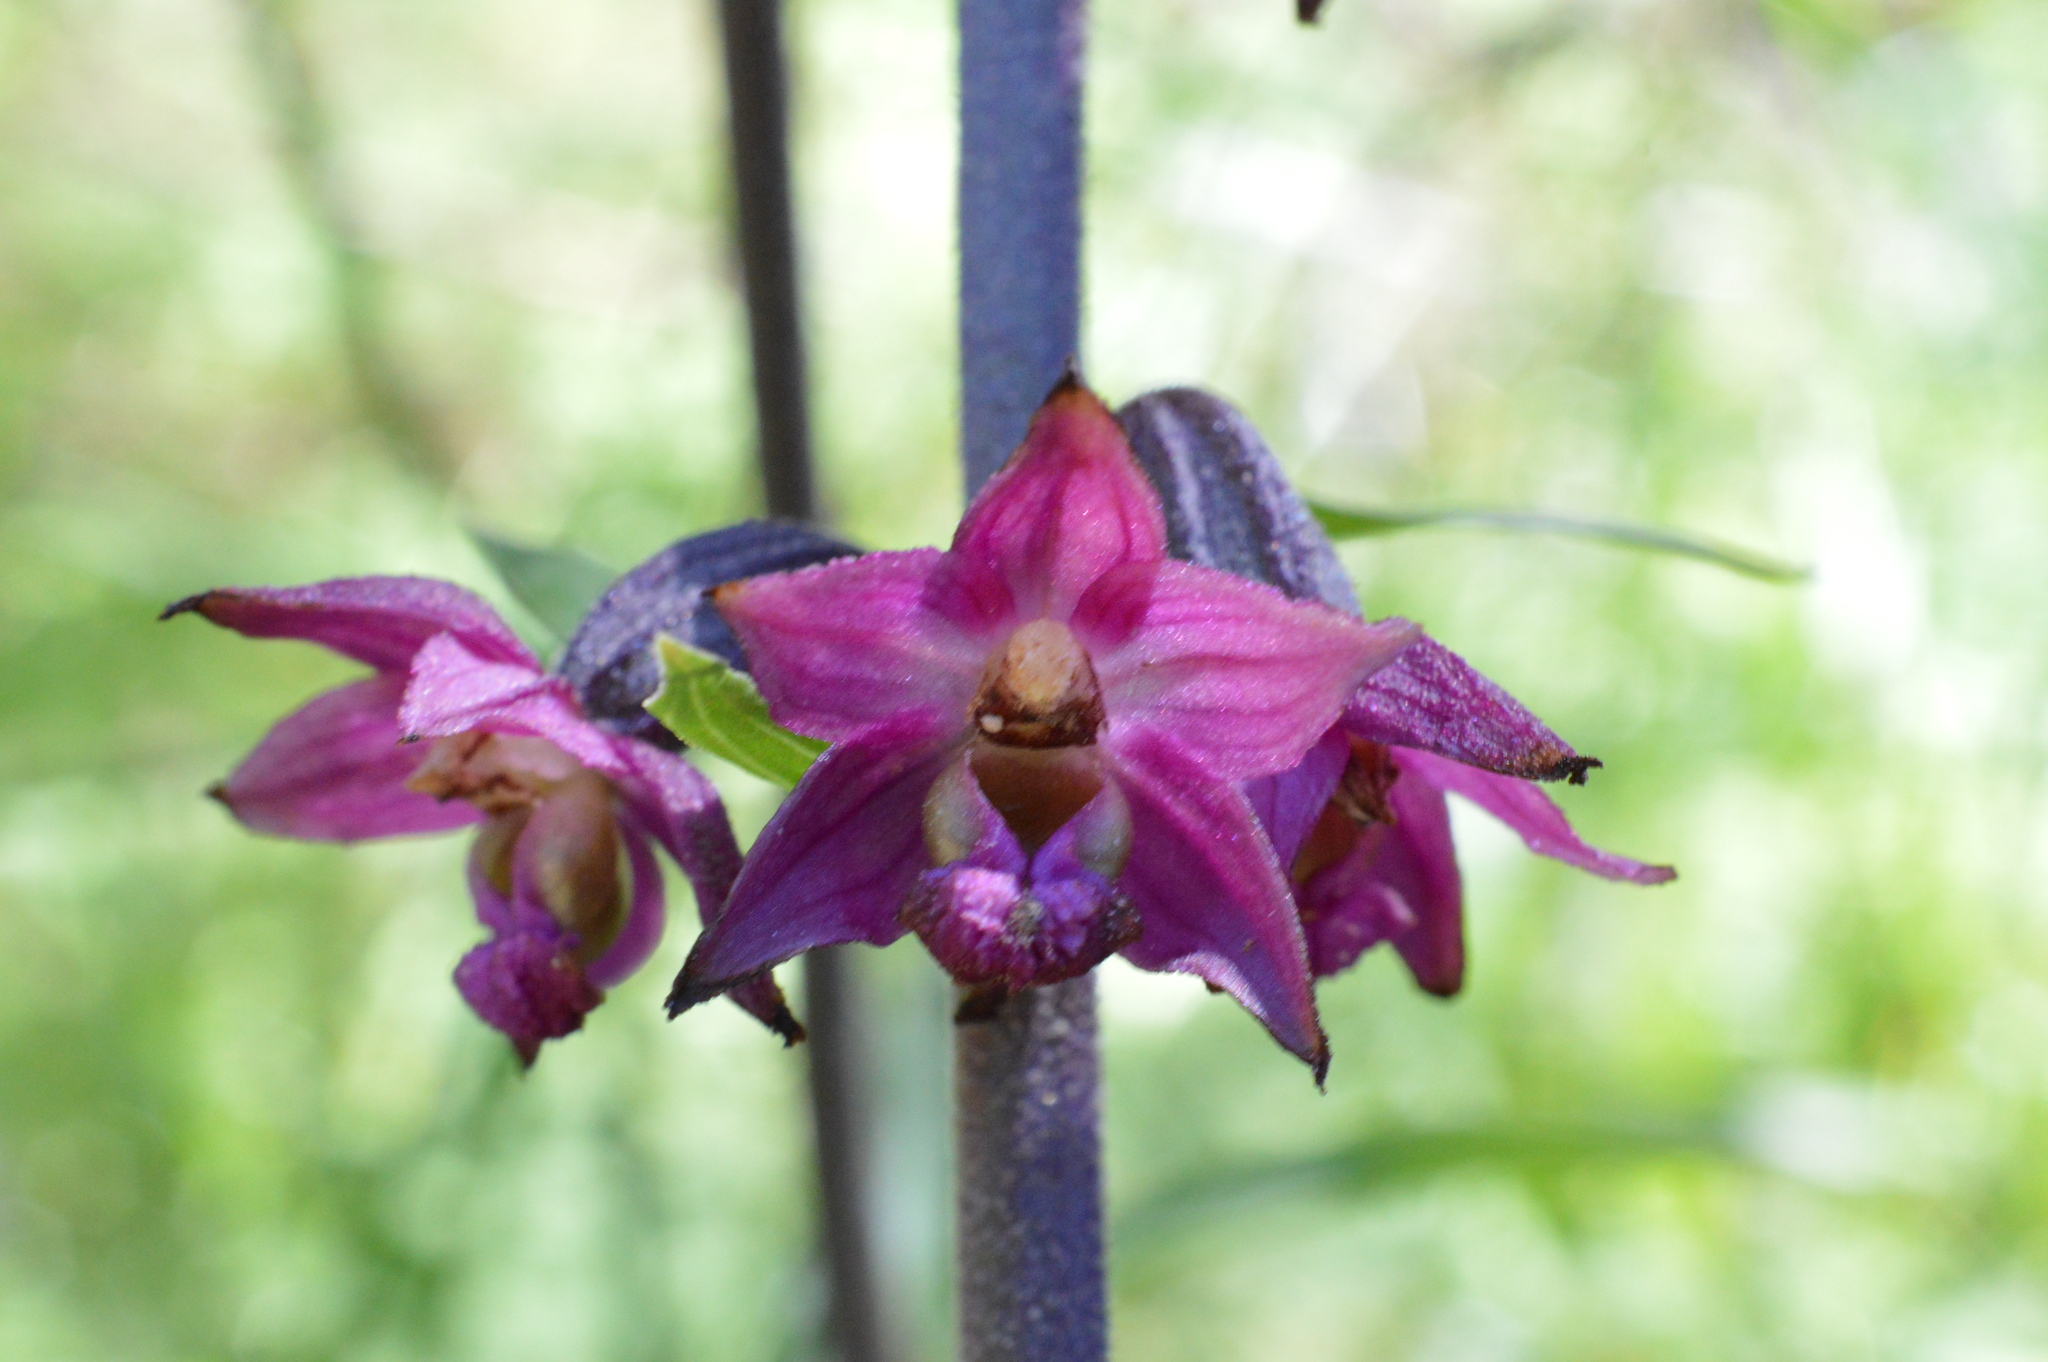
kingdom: Plantae
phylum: Tracheophyta
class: Liliopsida
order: Asparagales
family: Orchidaceae
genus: Epipactis
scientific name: Epipactis atrorubens
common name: Dark-red helleborine
